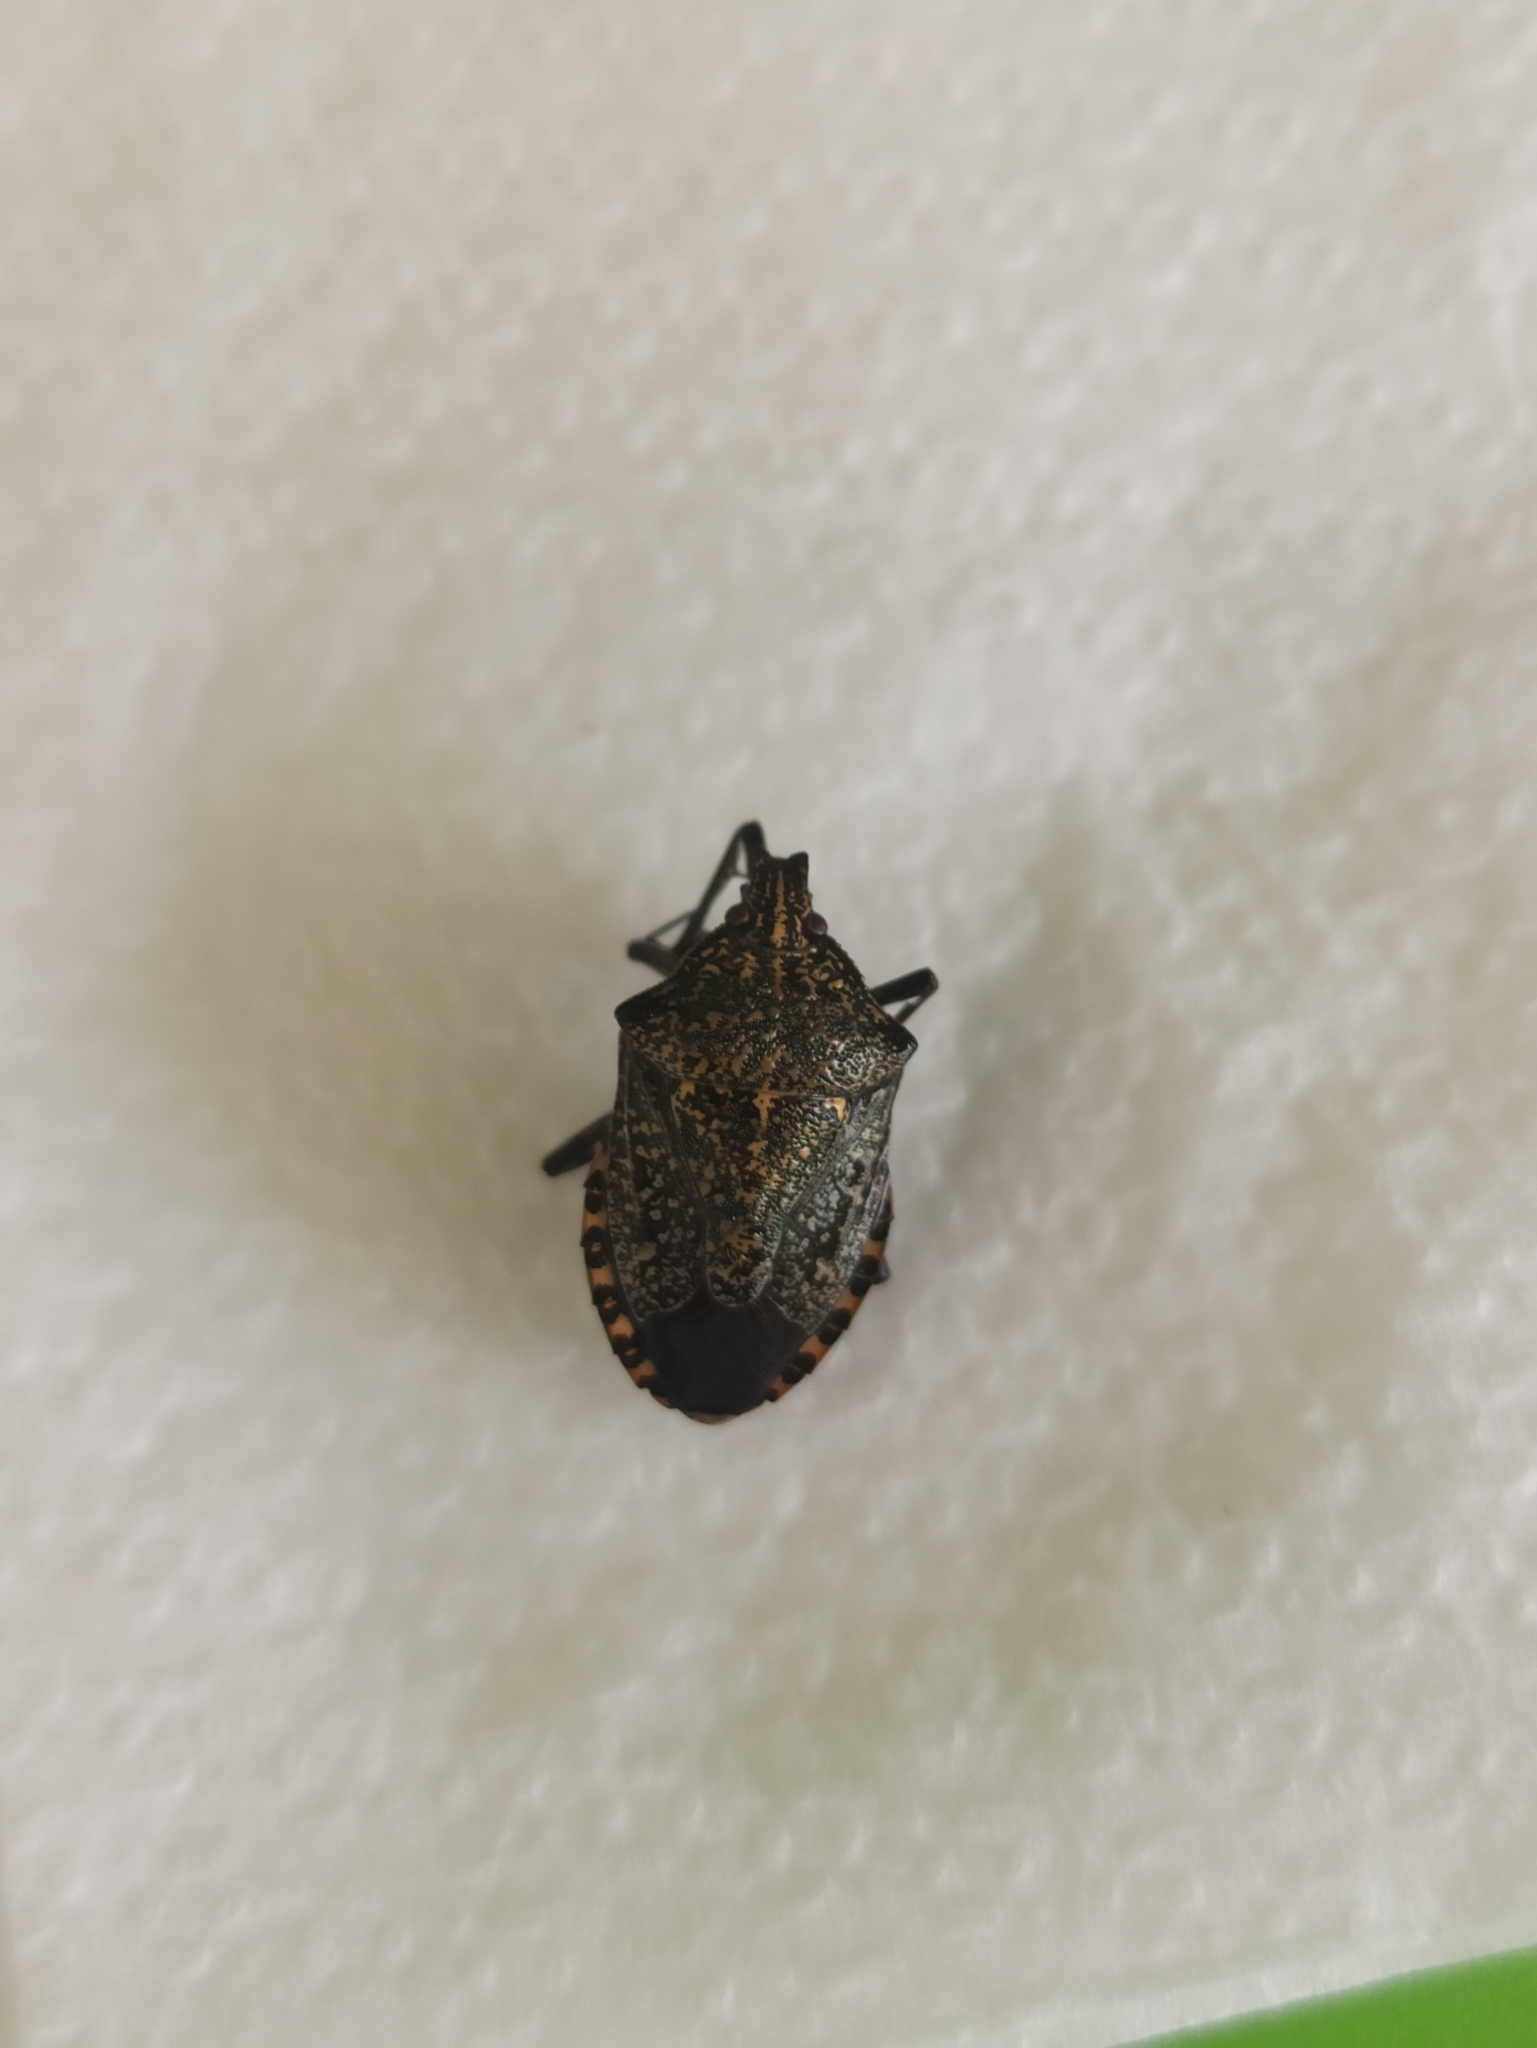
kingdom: Animalia
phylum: Arthropoda
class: Insecta
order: Hemiptera
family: Pentatomidae
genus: Apodiphus
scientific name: Apodiphus amygdali
